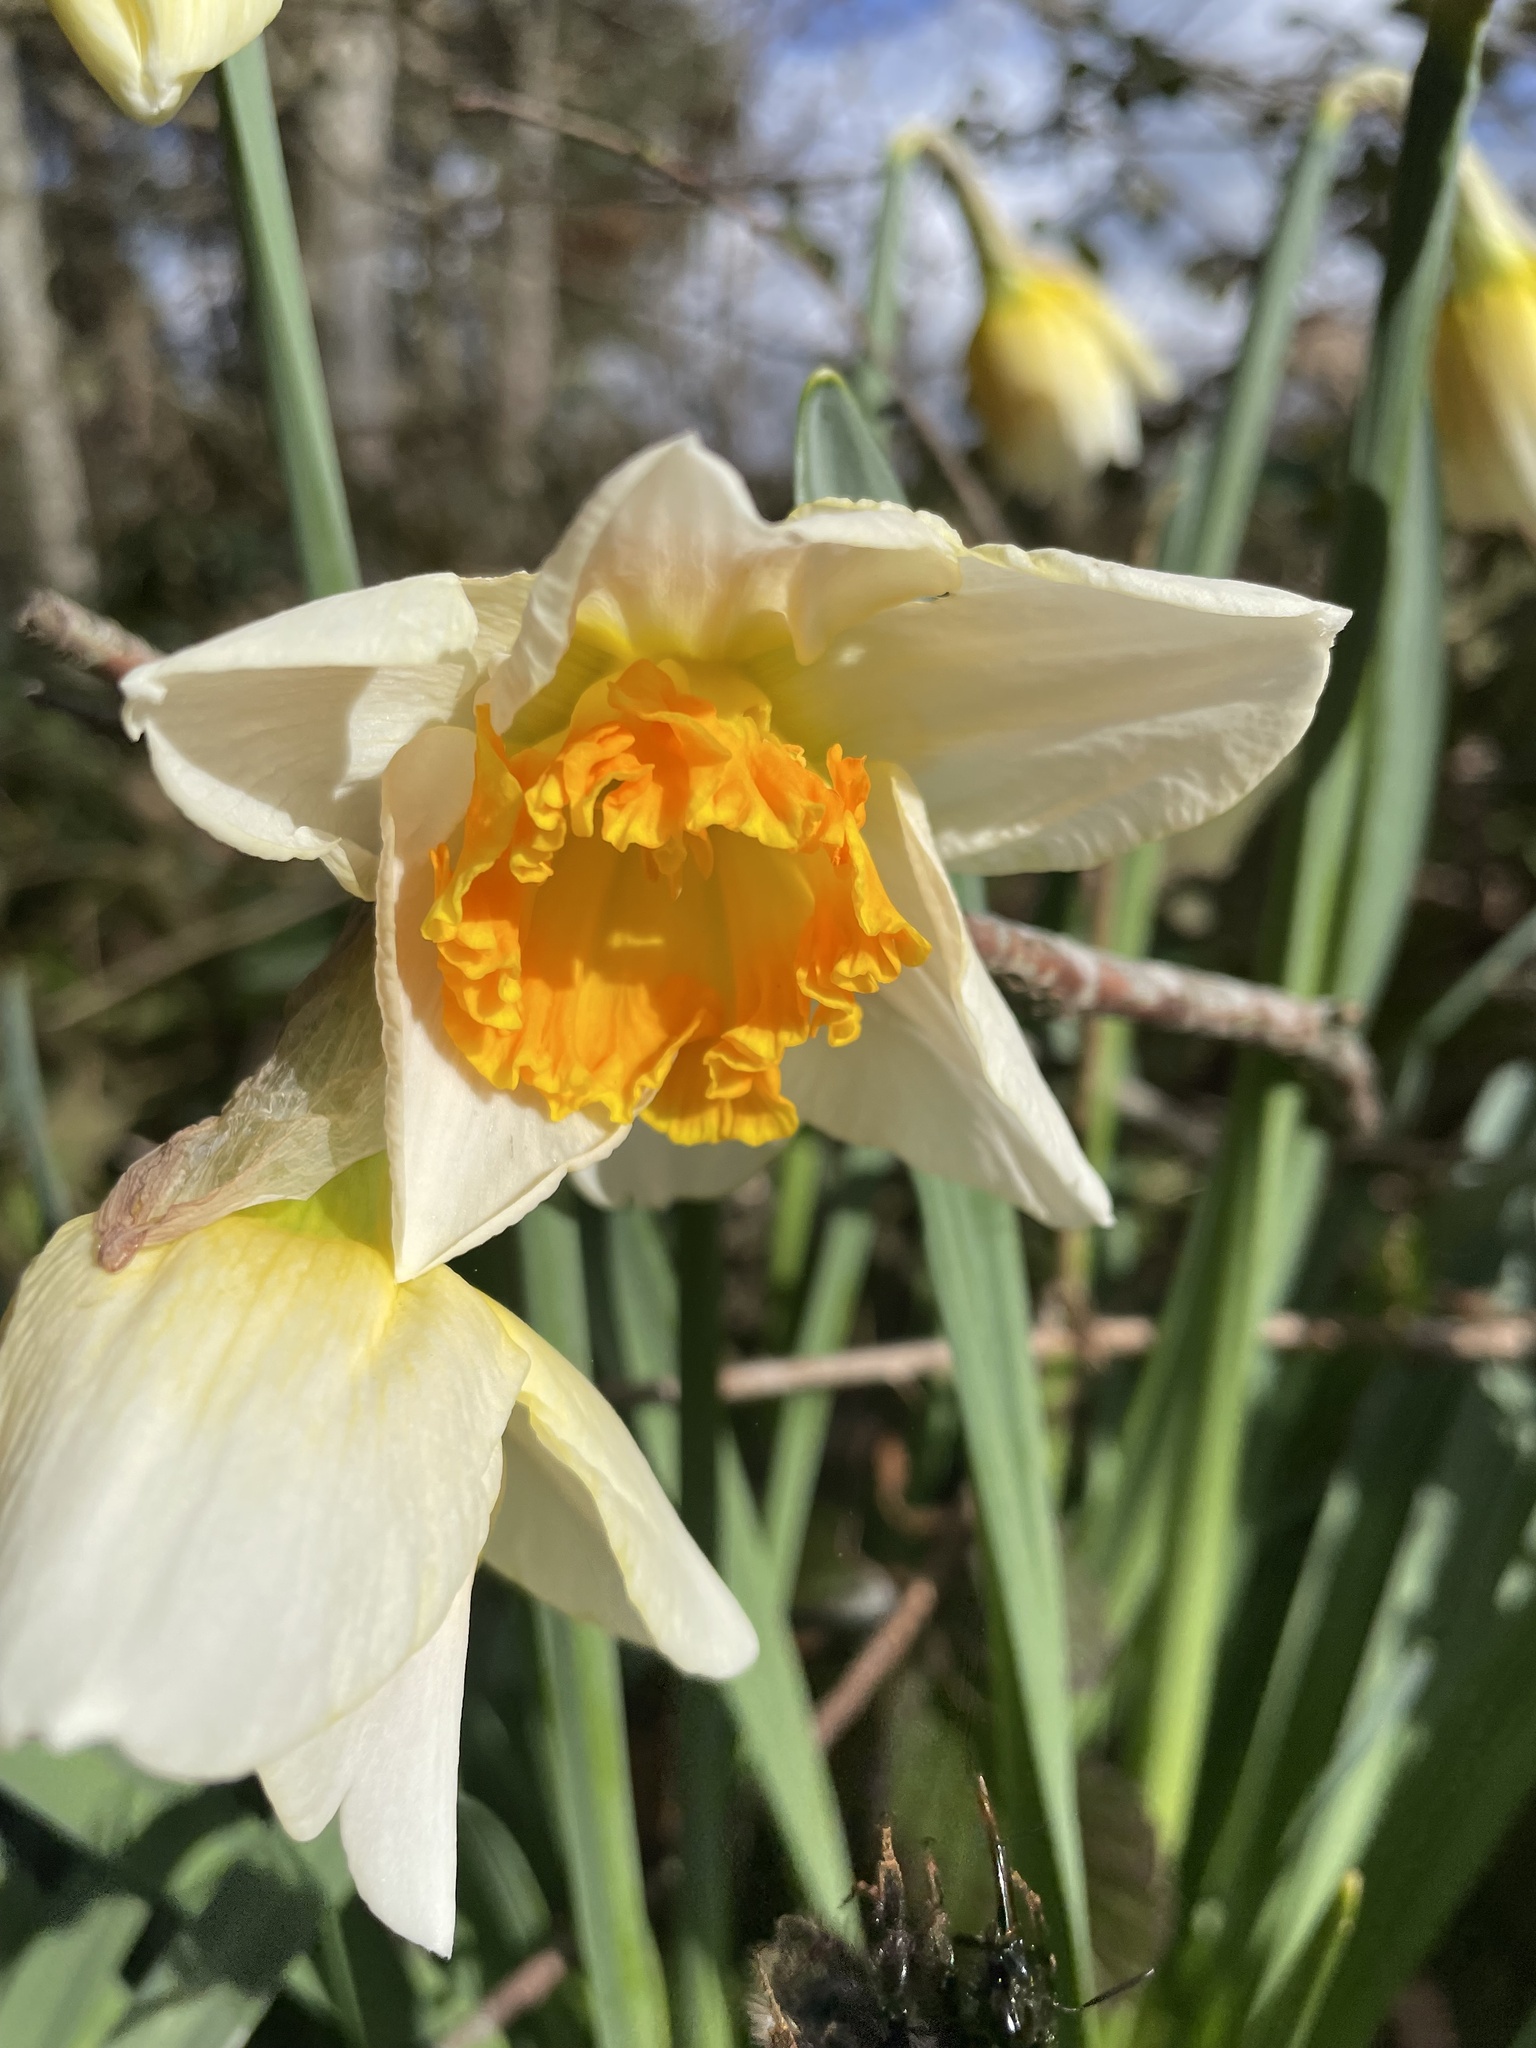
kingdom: Animalia
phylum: Arthropoda
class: Insecta
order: Hymenoptera
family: Apidae
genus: Bombus
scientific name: Bombus hortorum
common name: Garden bumblebee
